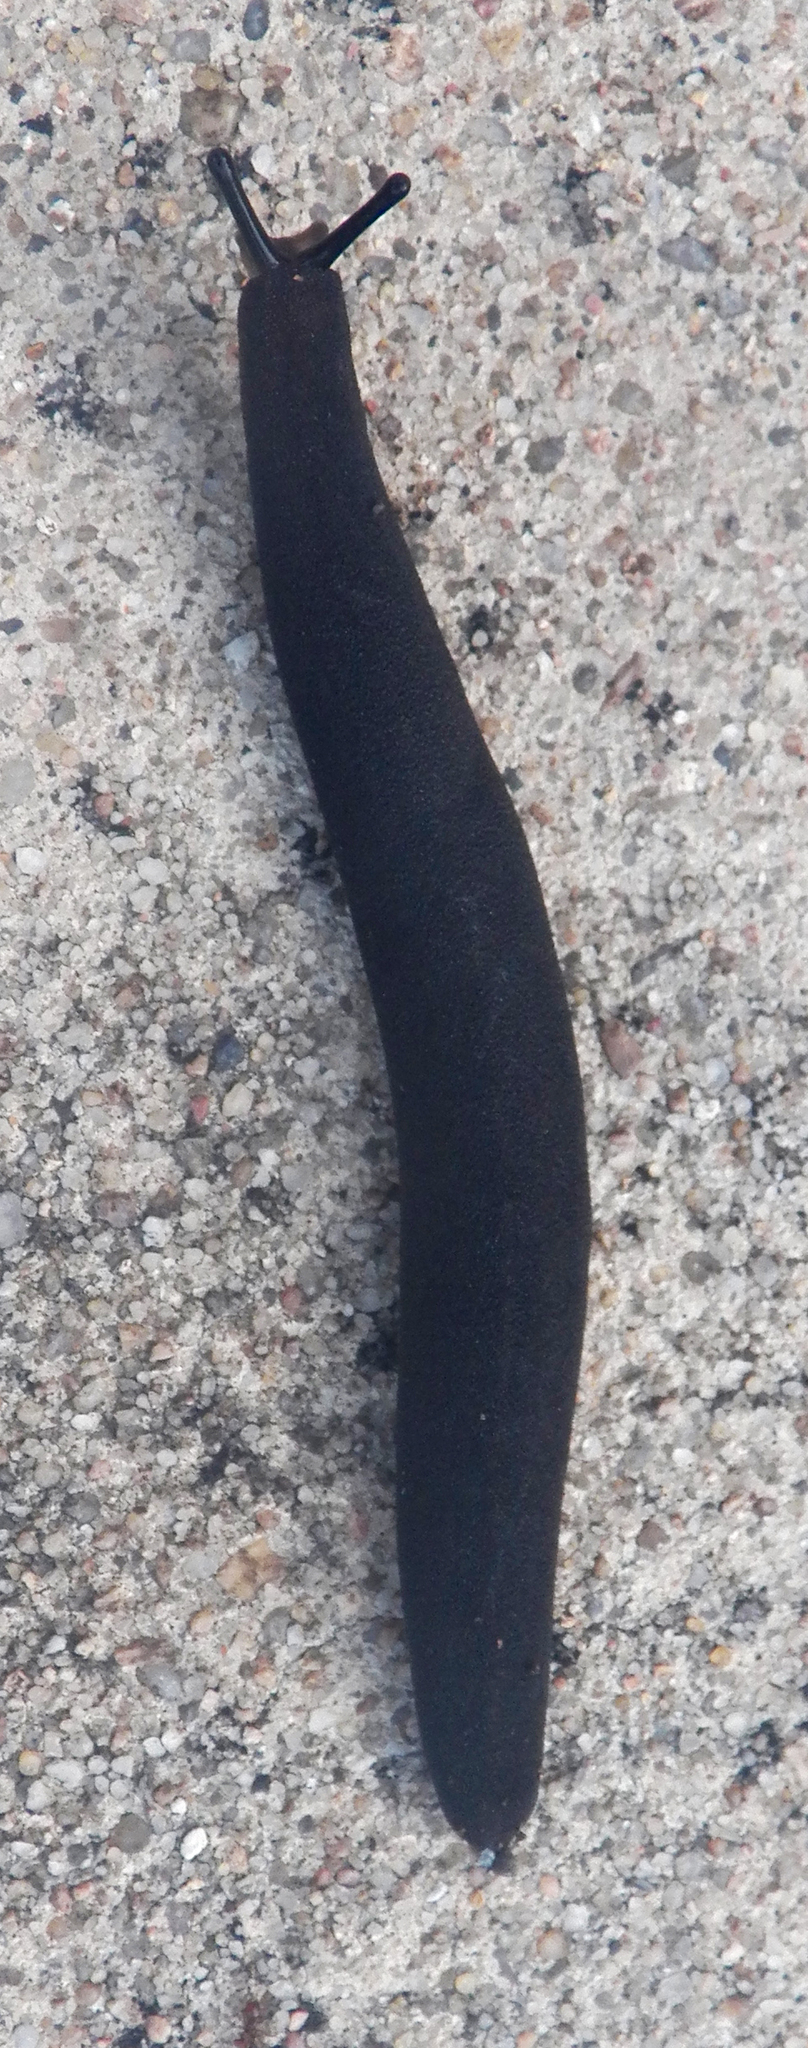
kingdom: Animalia
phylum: Mollusca
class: Gastropoda
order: Systellommatophora
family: Veronicellidae
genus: Belocaulus
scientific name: Belocaulus angustipes
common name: Black velvet leatherleaf slug
